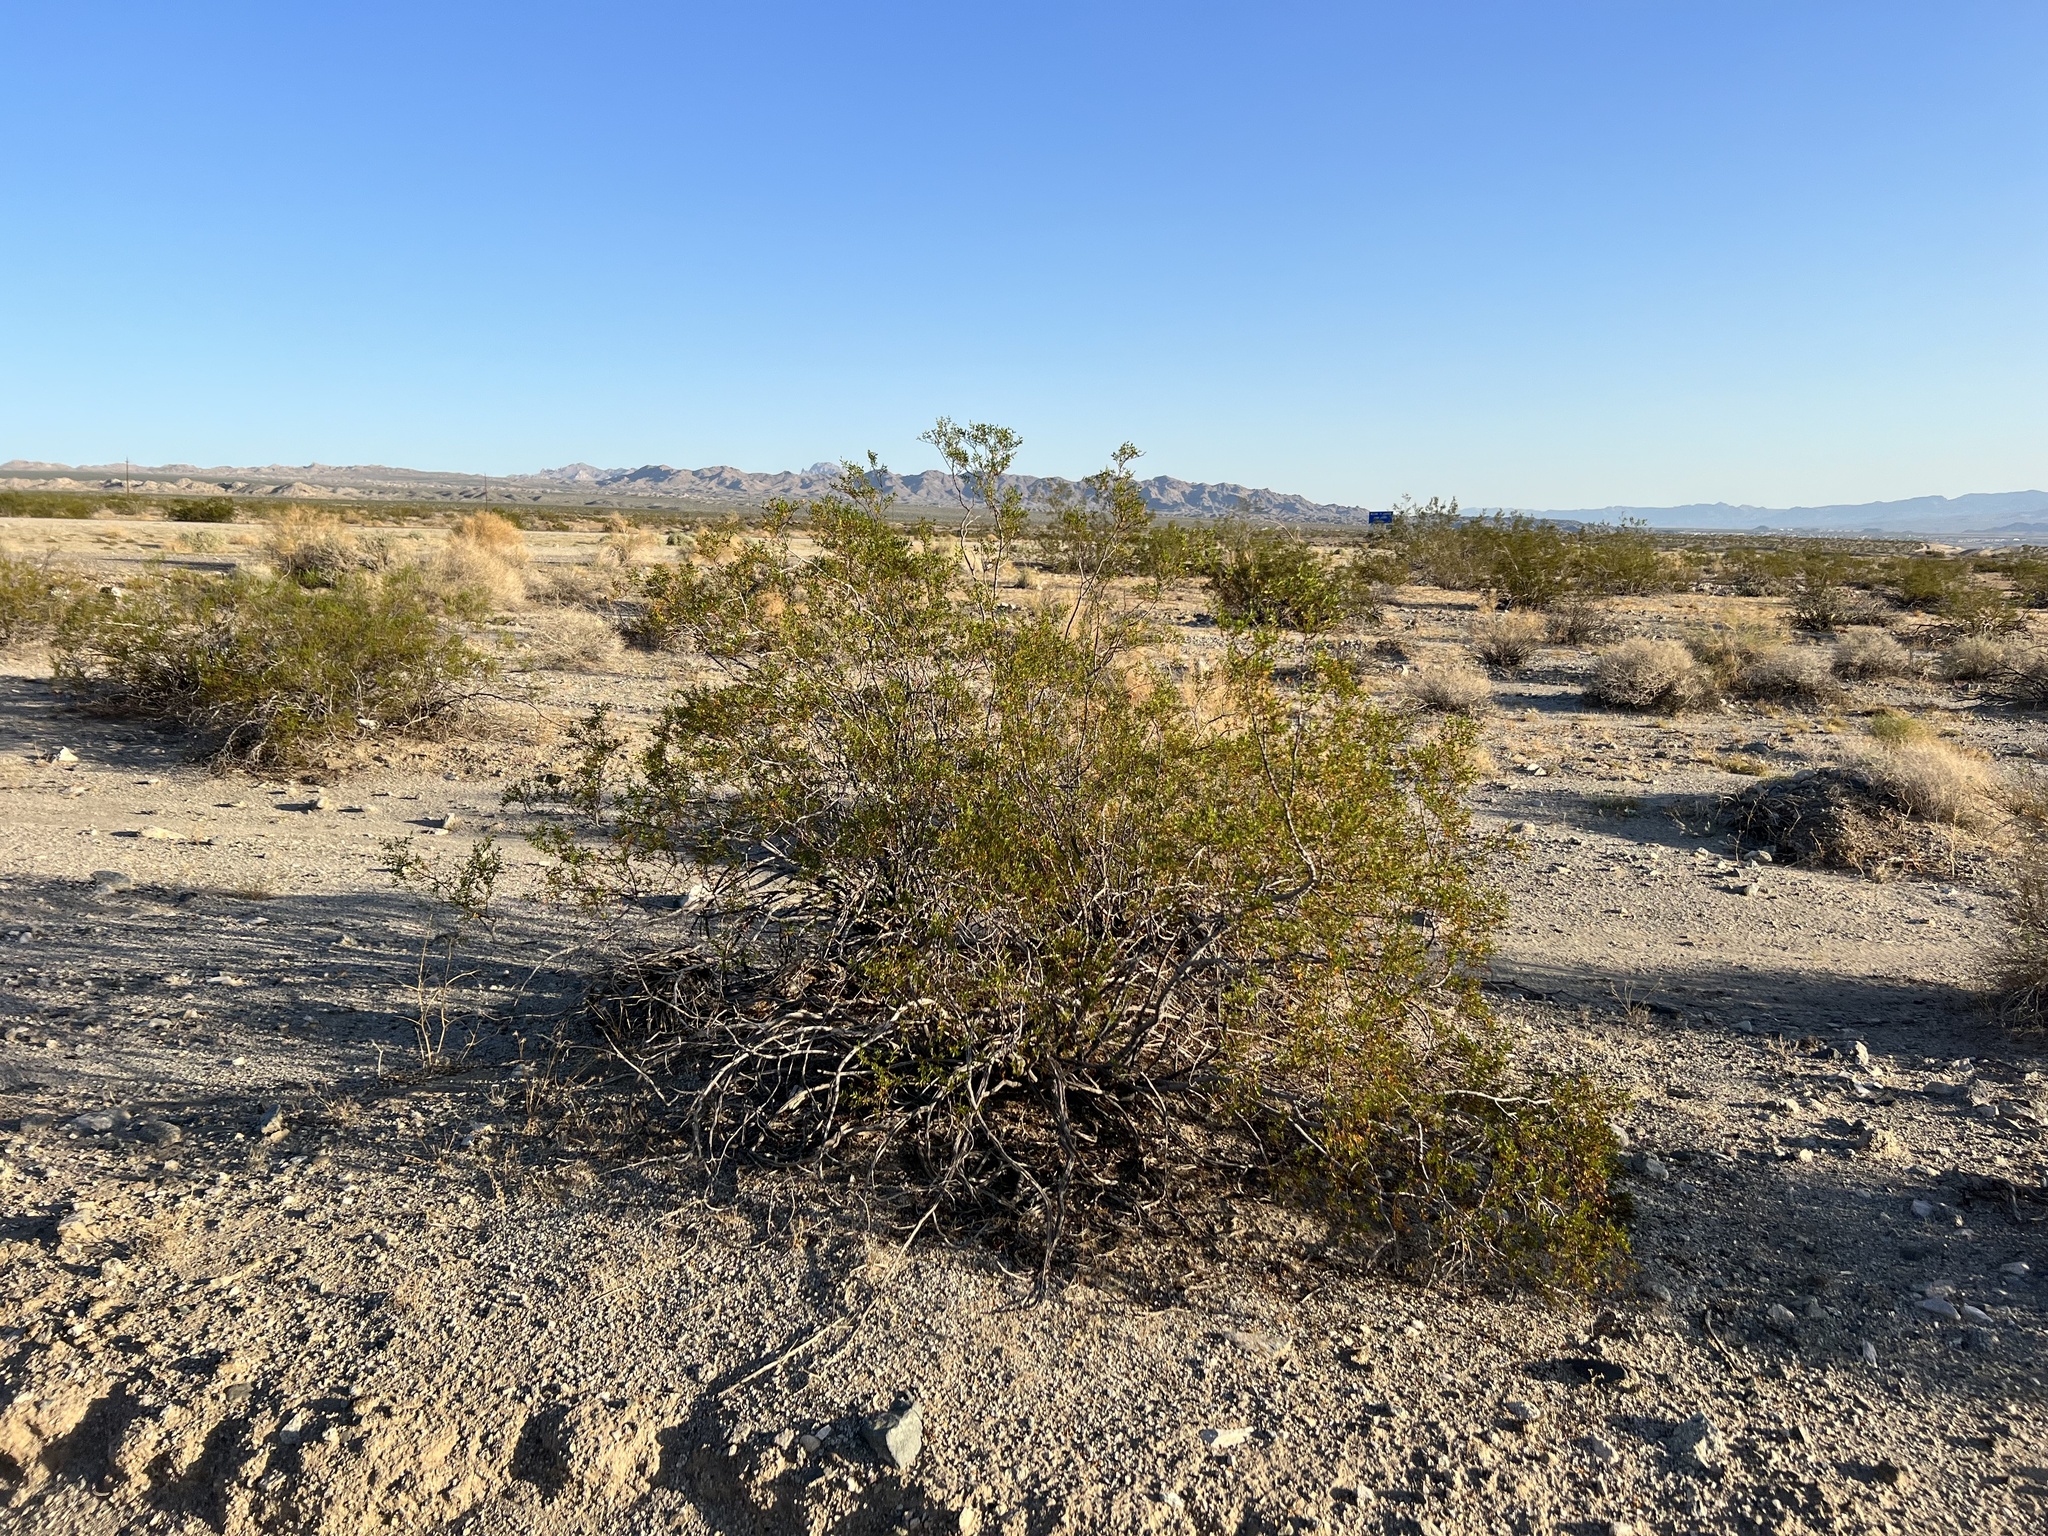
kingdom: Plantae
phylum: Tracheophyta
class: Magnoliopsida
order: Zygophyllales
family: Zygophyllaceae
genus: Larrea
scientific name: Larrea tridentata
